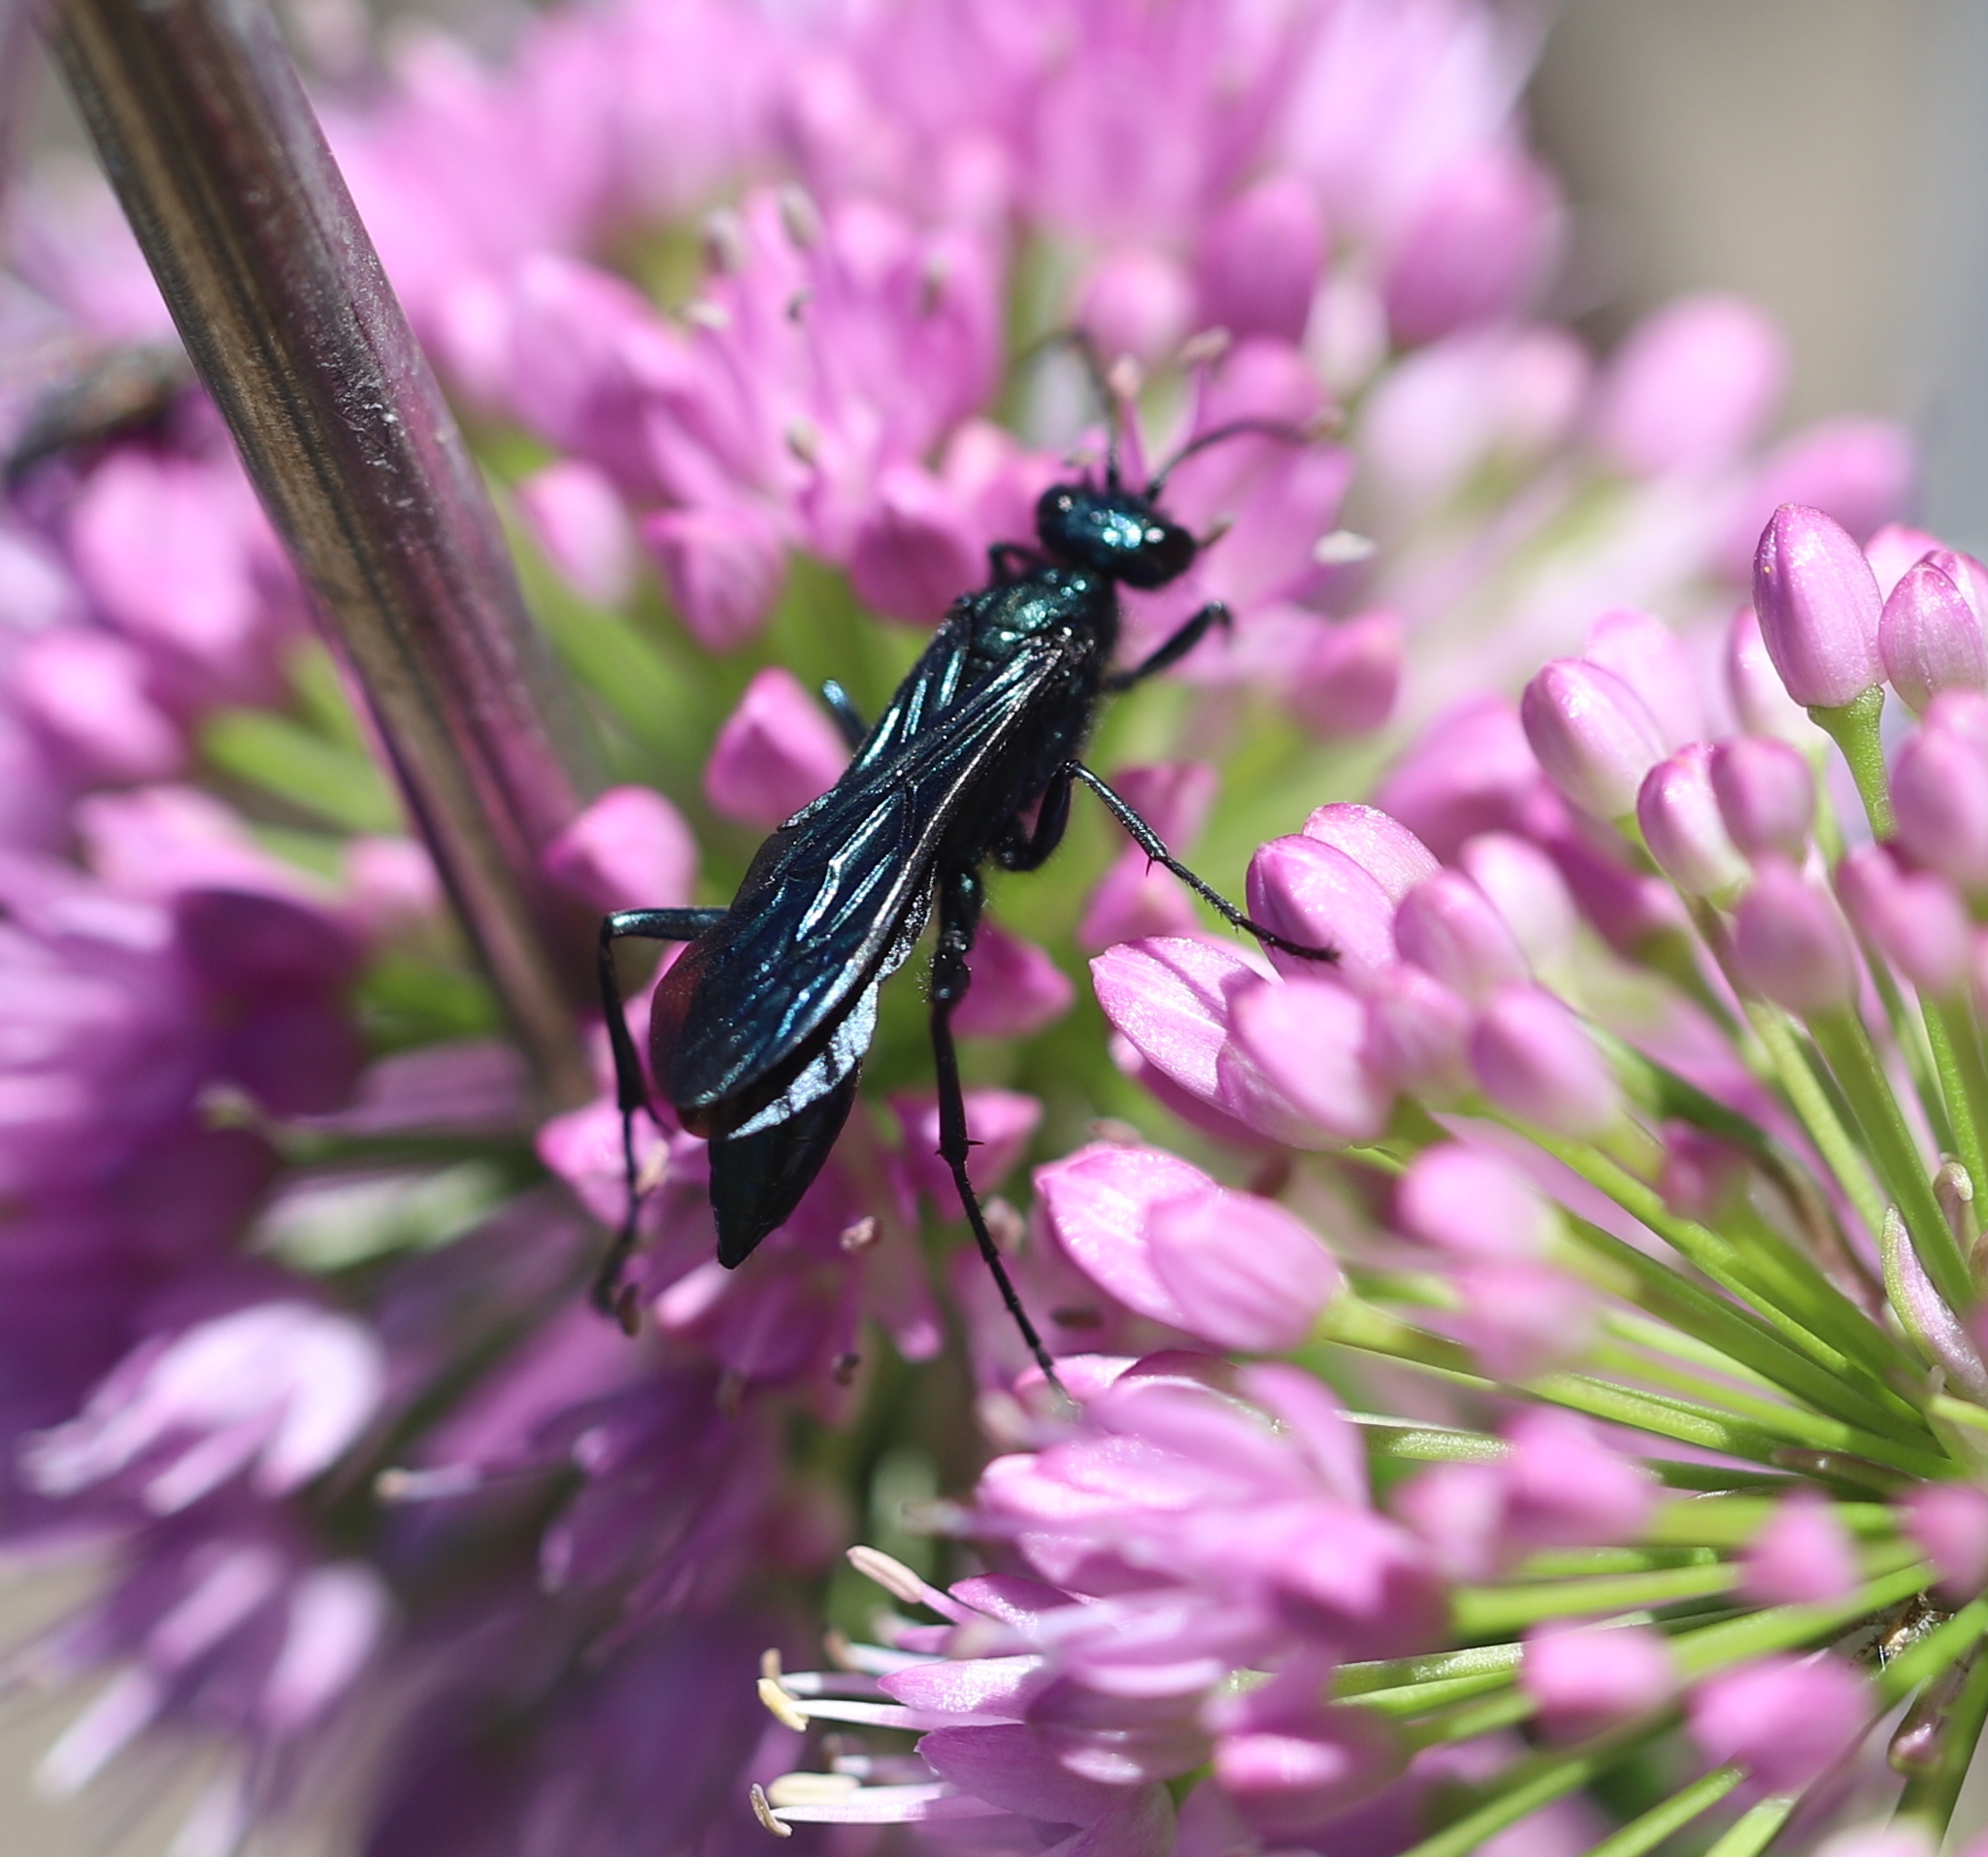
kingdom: Animalia
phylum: Arthropoda
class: Insecta
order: Hymenoptera
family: Sphecidae
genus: Chalybion
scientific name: Chalybion californicum
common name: Mud dauber
